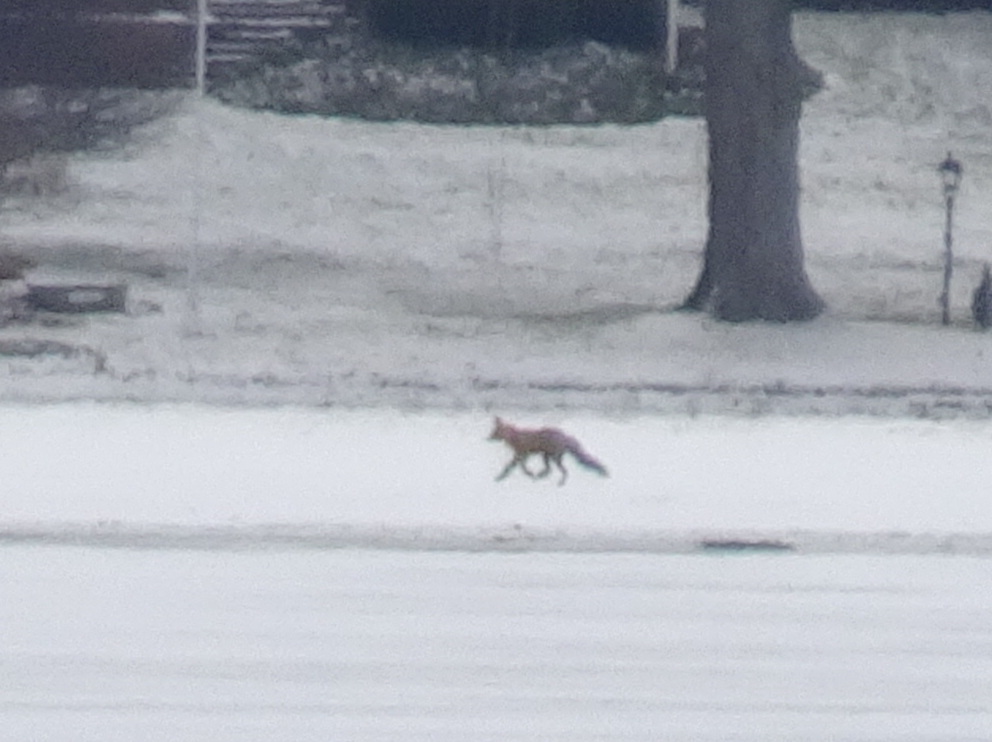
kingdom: Animalia
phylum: Chordata
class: Mammalia
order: Carnivora
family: Canidae
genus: Vulpes
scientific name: Vulpes vulpes
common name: Red fox
